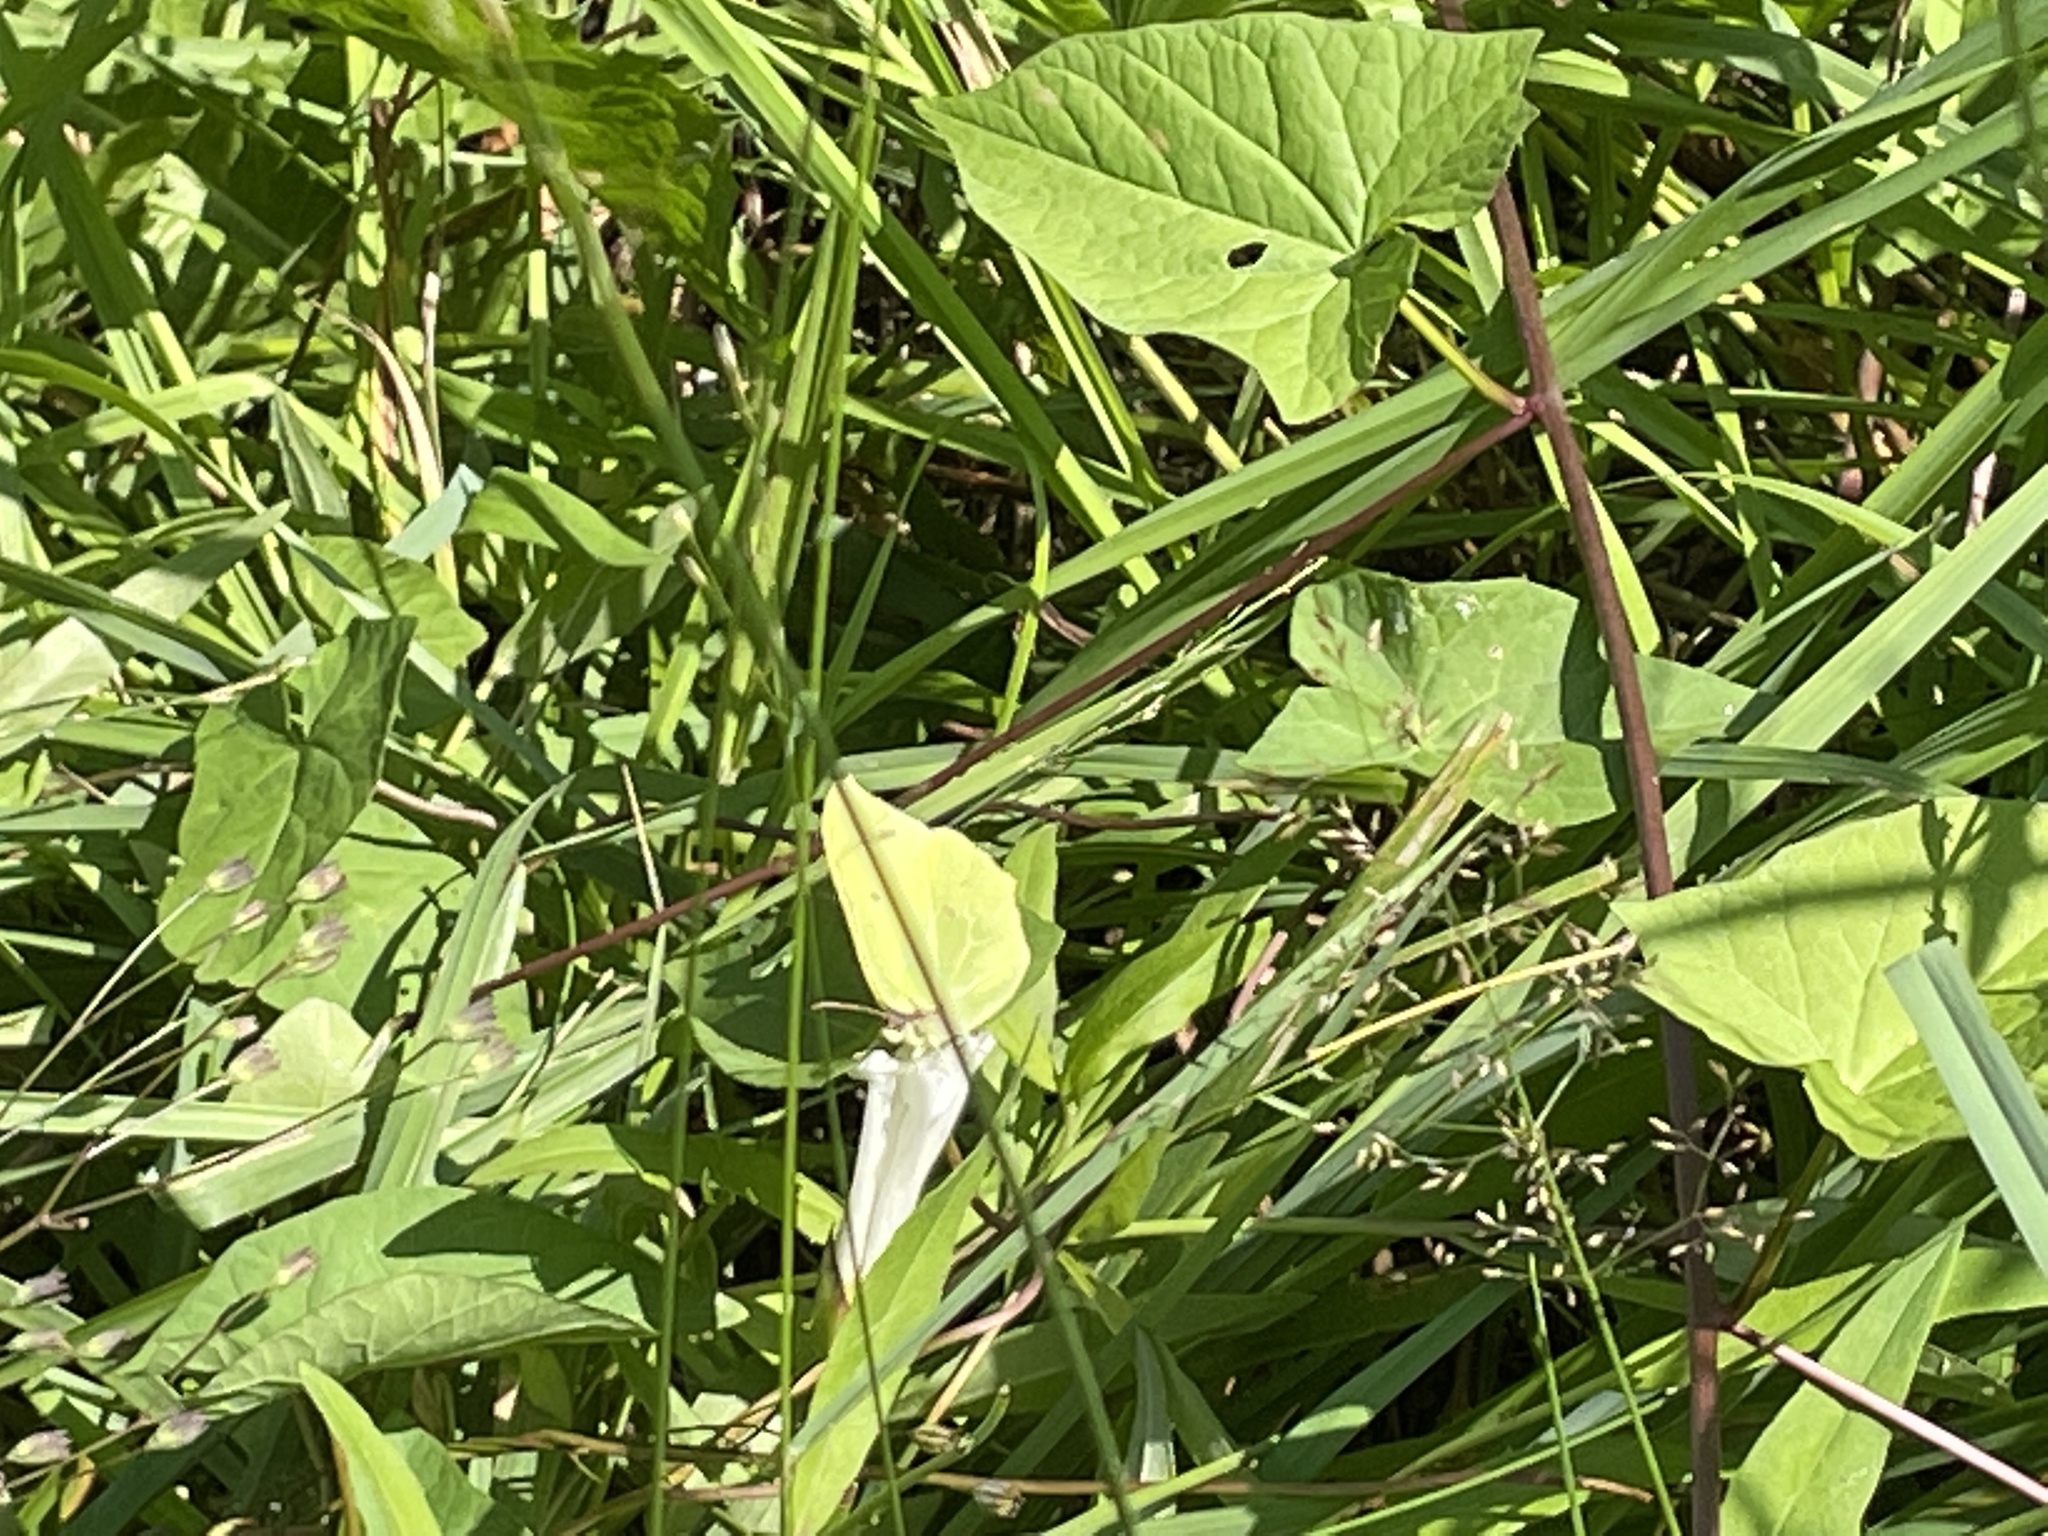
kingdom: Animalia
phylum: Arthropoda
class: Insecta
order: Lepidoptera
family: Pieridae
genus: Gonepteryx
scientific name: Gonepteryx rhamni
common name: Brimstone
